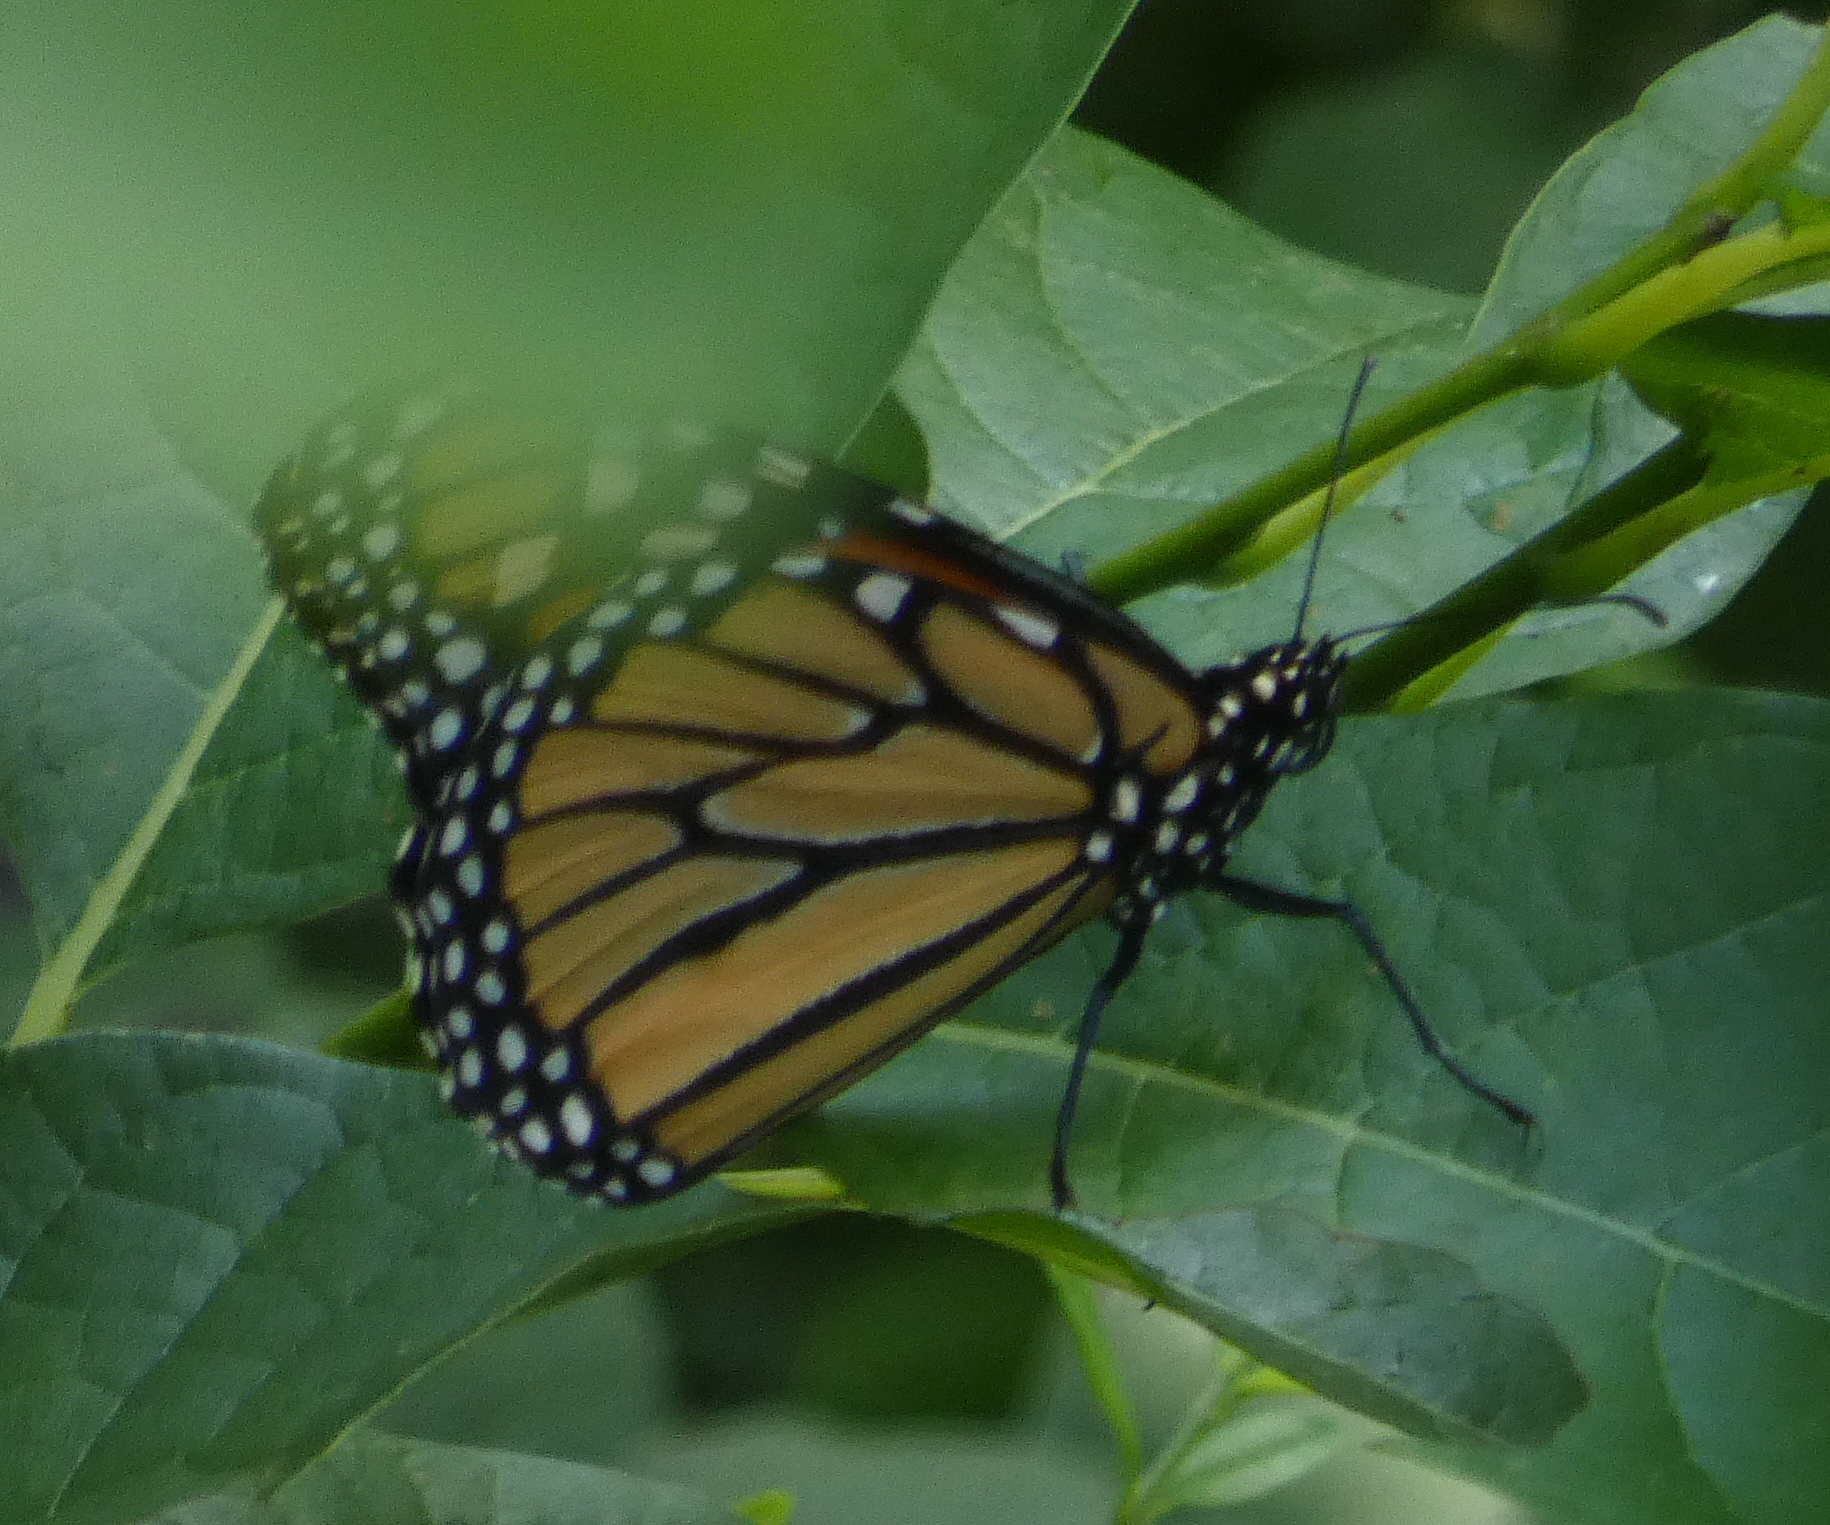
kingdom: Animalia
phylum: Arthropoda
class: Insecta
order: Lepidoptera
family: Nymphalidae
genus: Danaus
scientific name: Danaus plexippus
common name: Monarch
